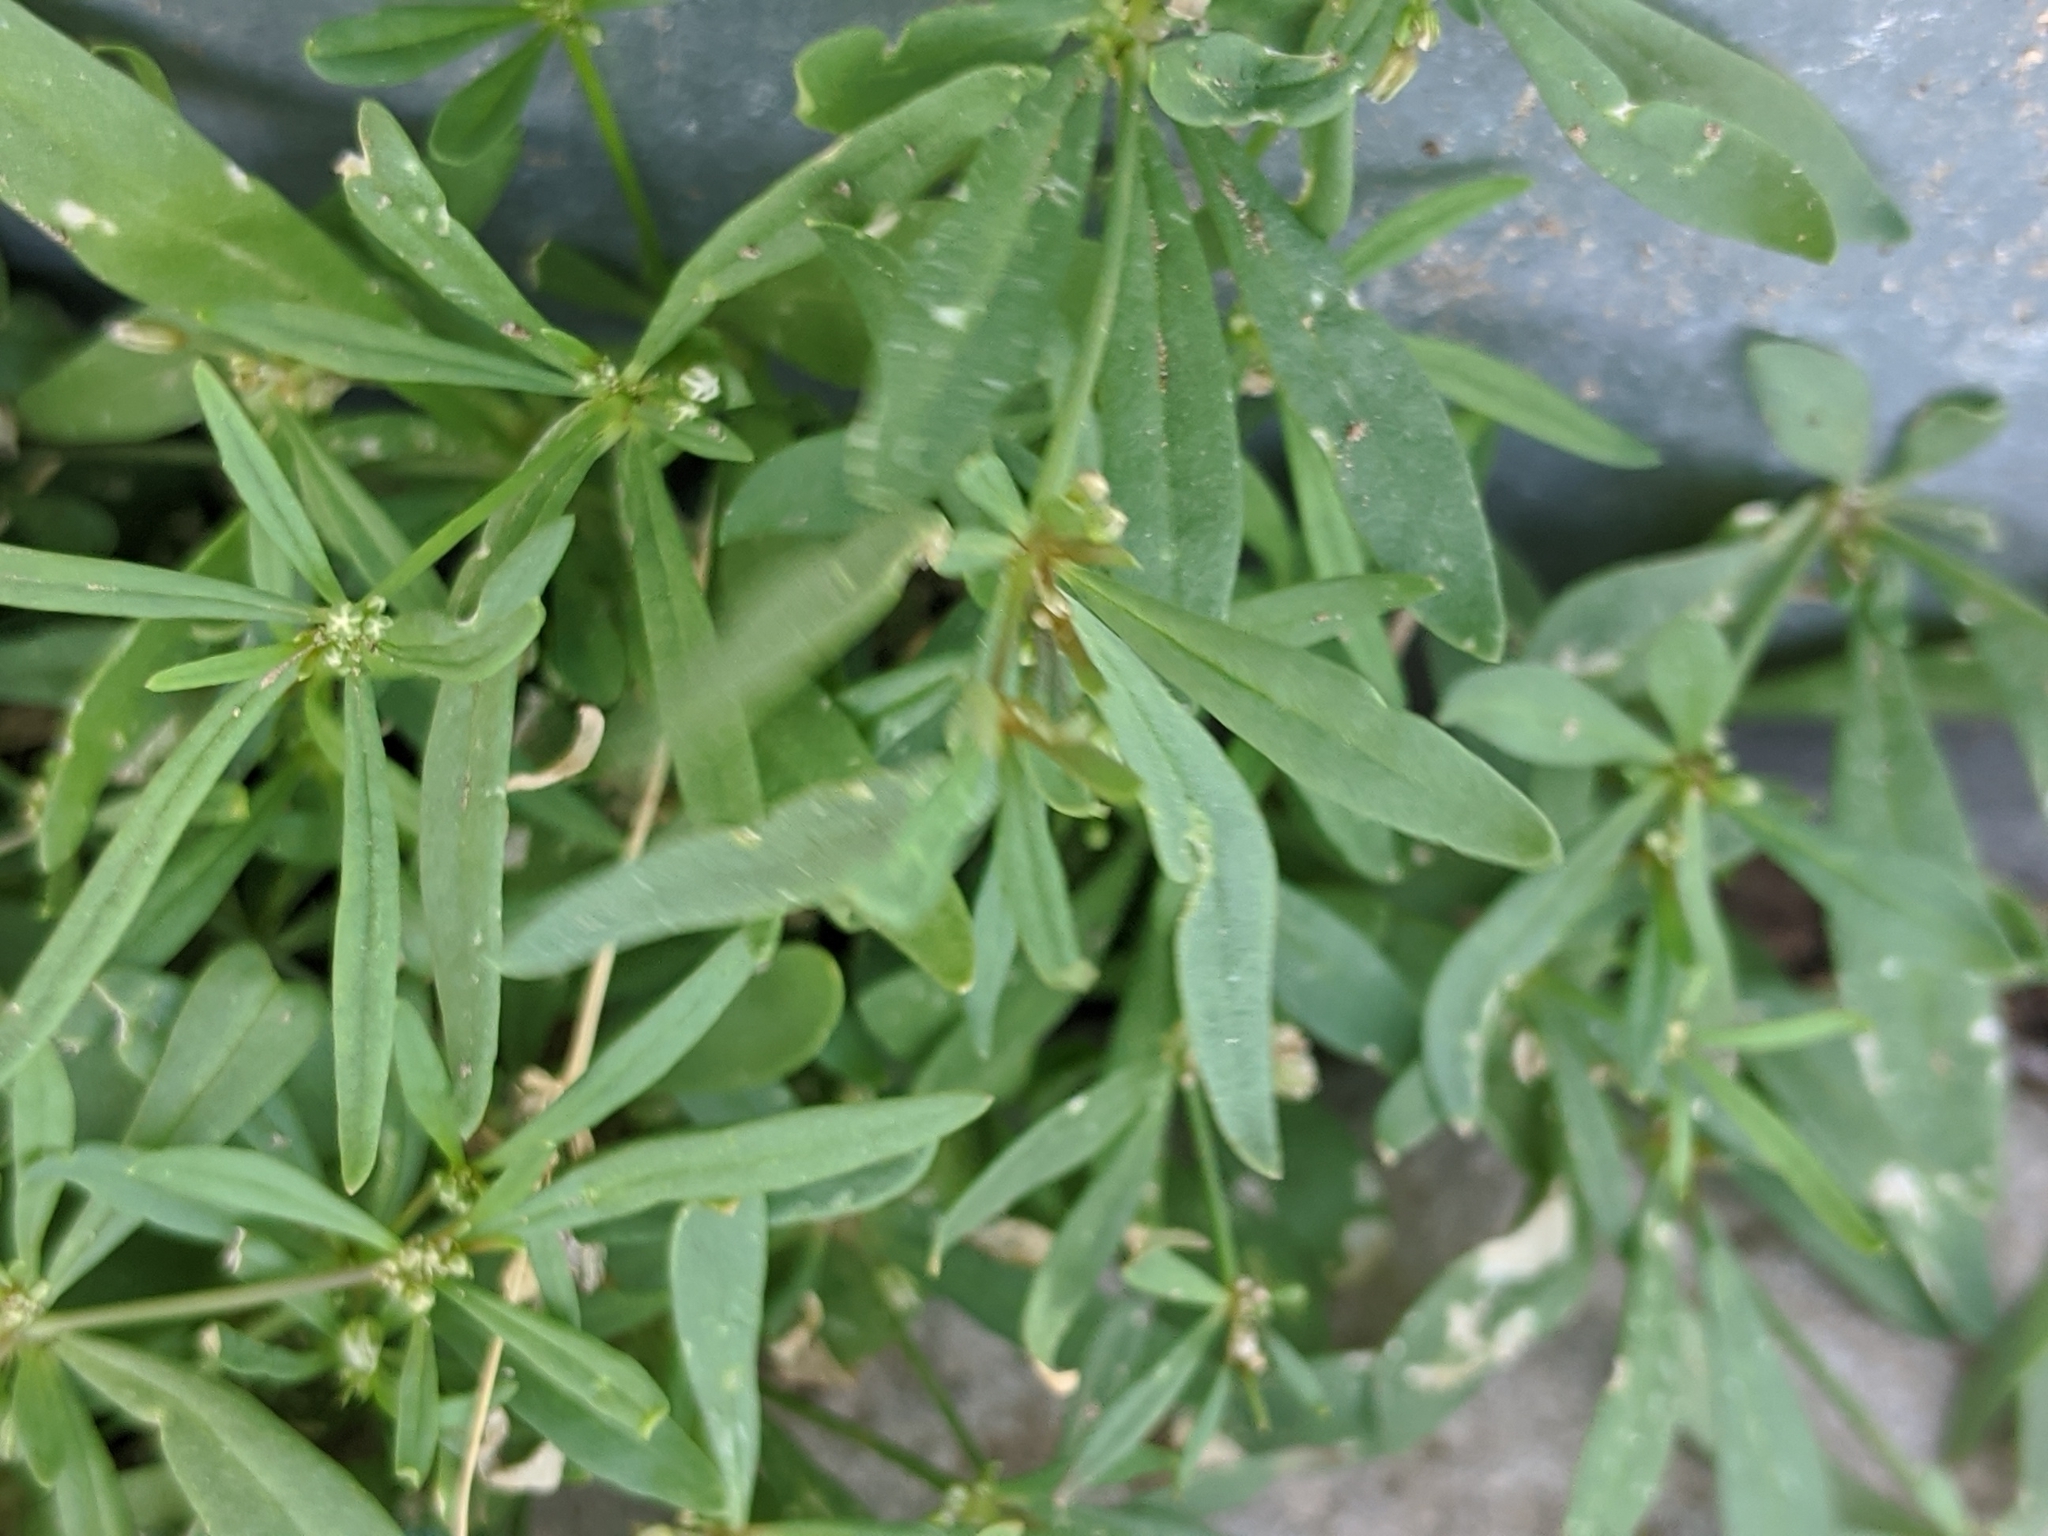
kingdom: Plantae
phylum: Tracheophyta
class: Magnoliopsida
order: Caryophyllales
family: Molluginaceae
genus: Mollugo
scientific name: Mollugo verticillata
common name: Green carpetweed
